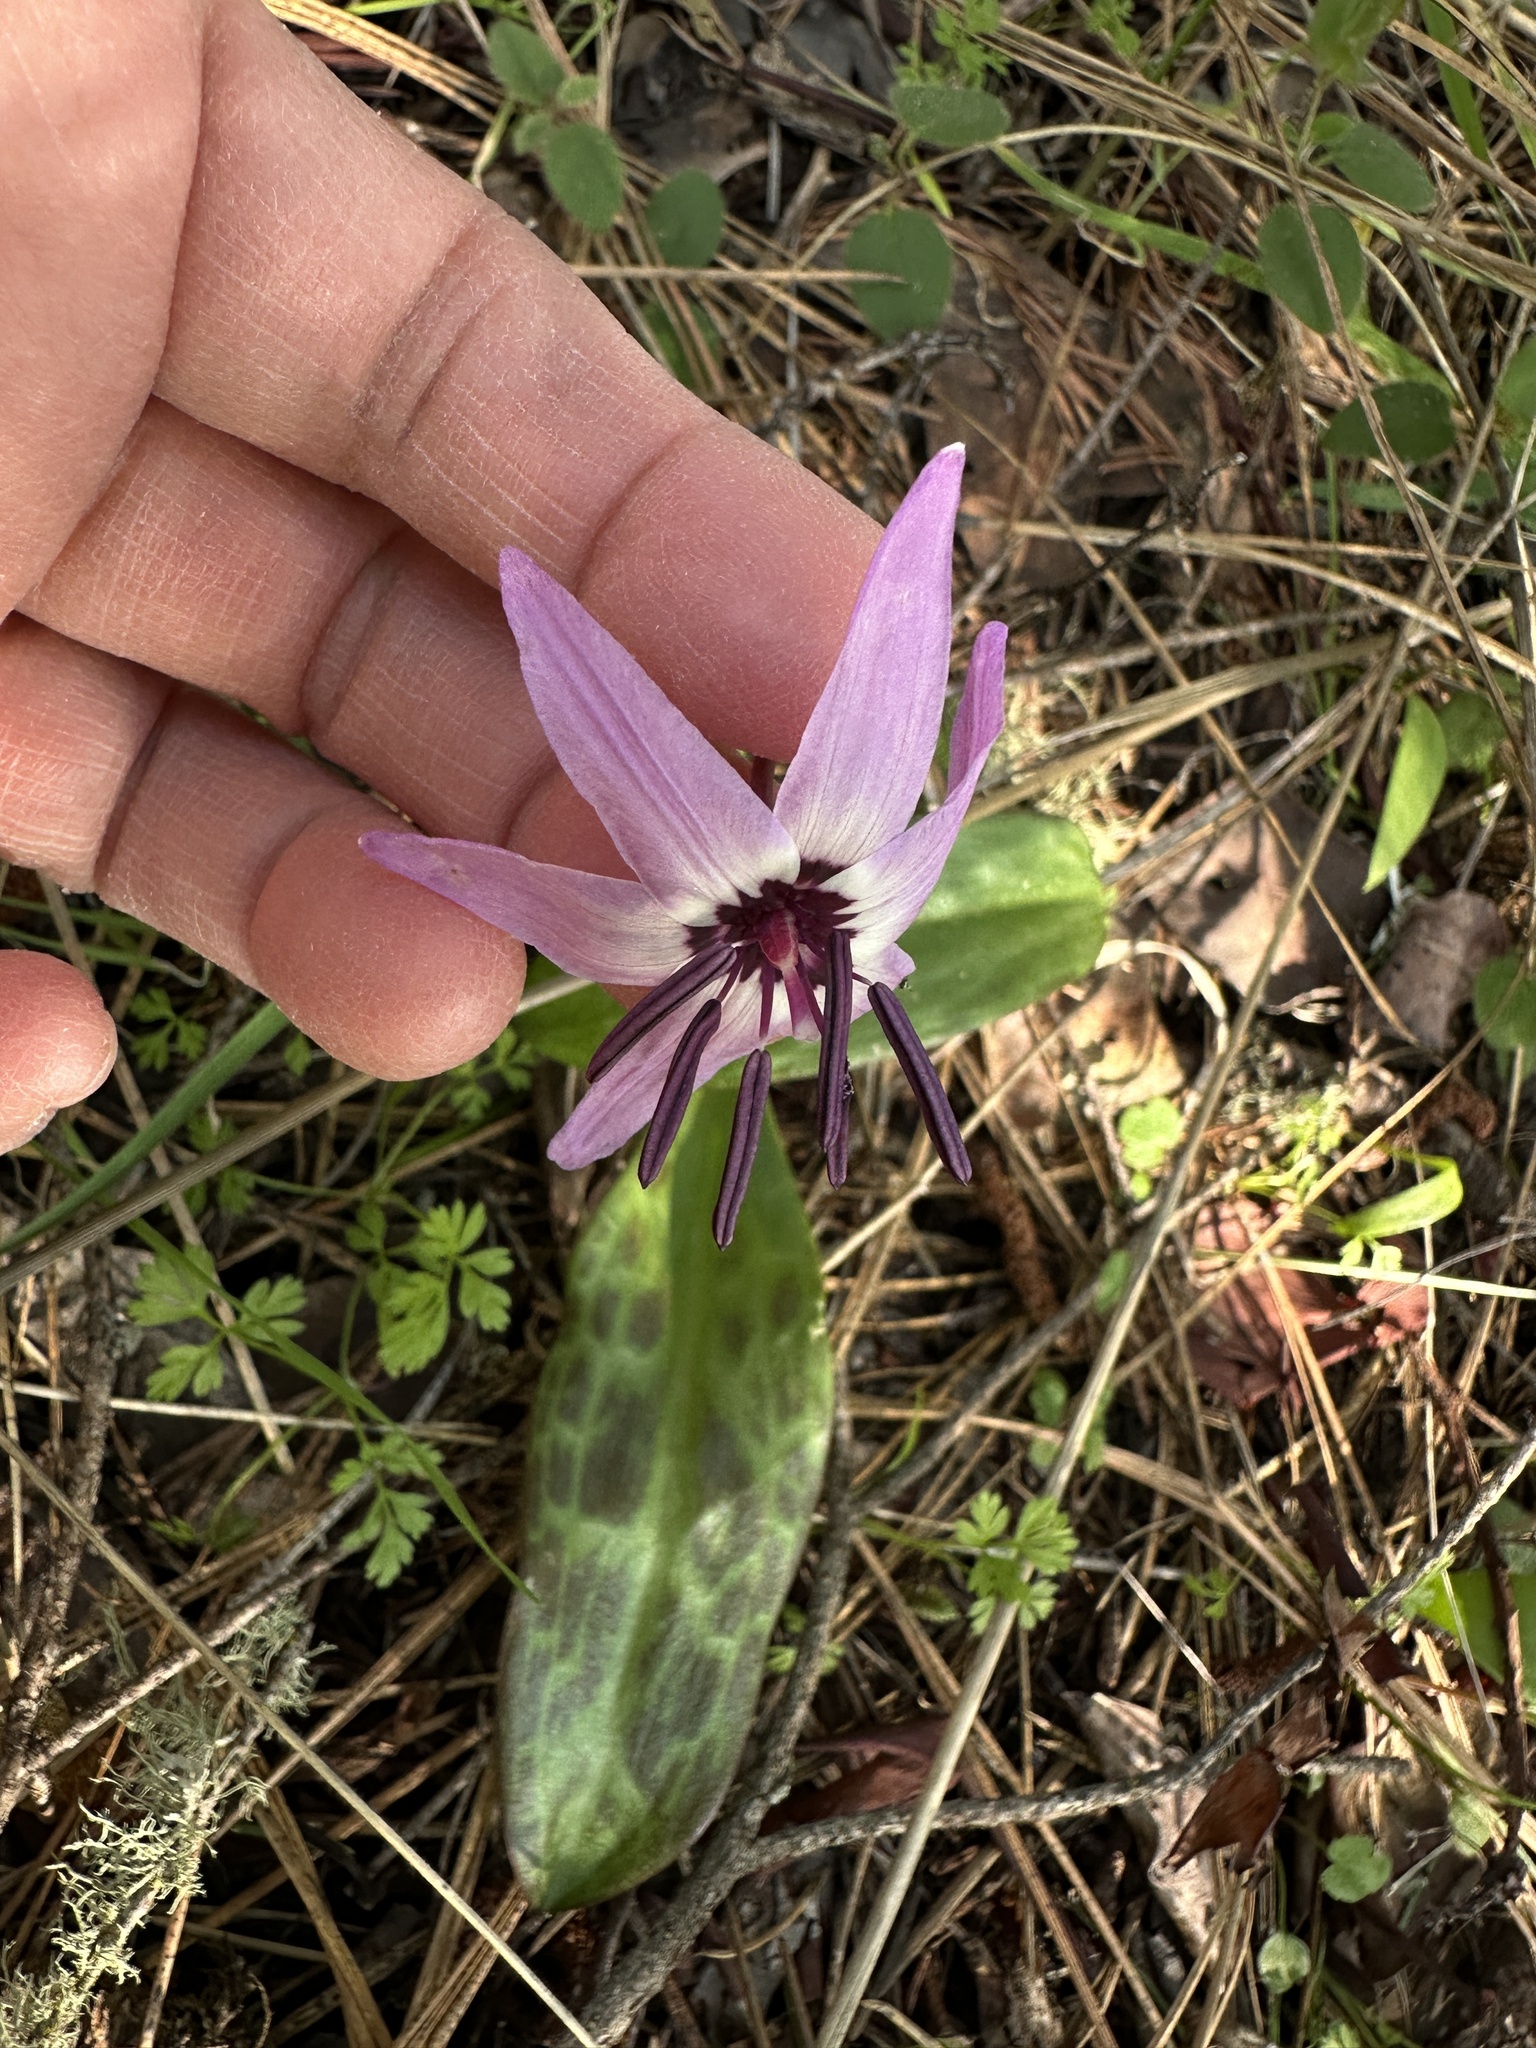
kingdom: Plantae
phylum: Tracheophyta
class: Liliopsida
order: Liliales
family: Liliaceae
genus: Erythronium
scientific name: Erythronium hendersonii
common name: Henderson's fawn-lily
